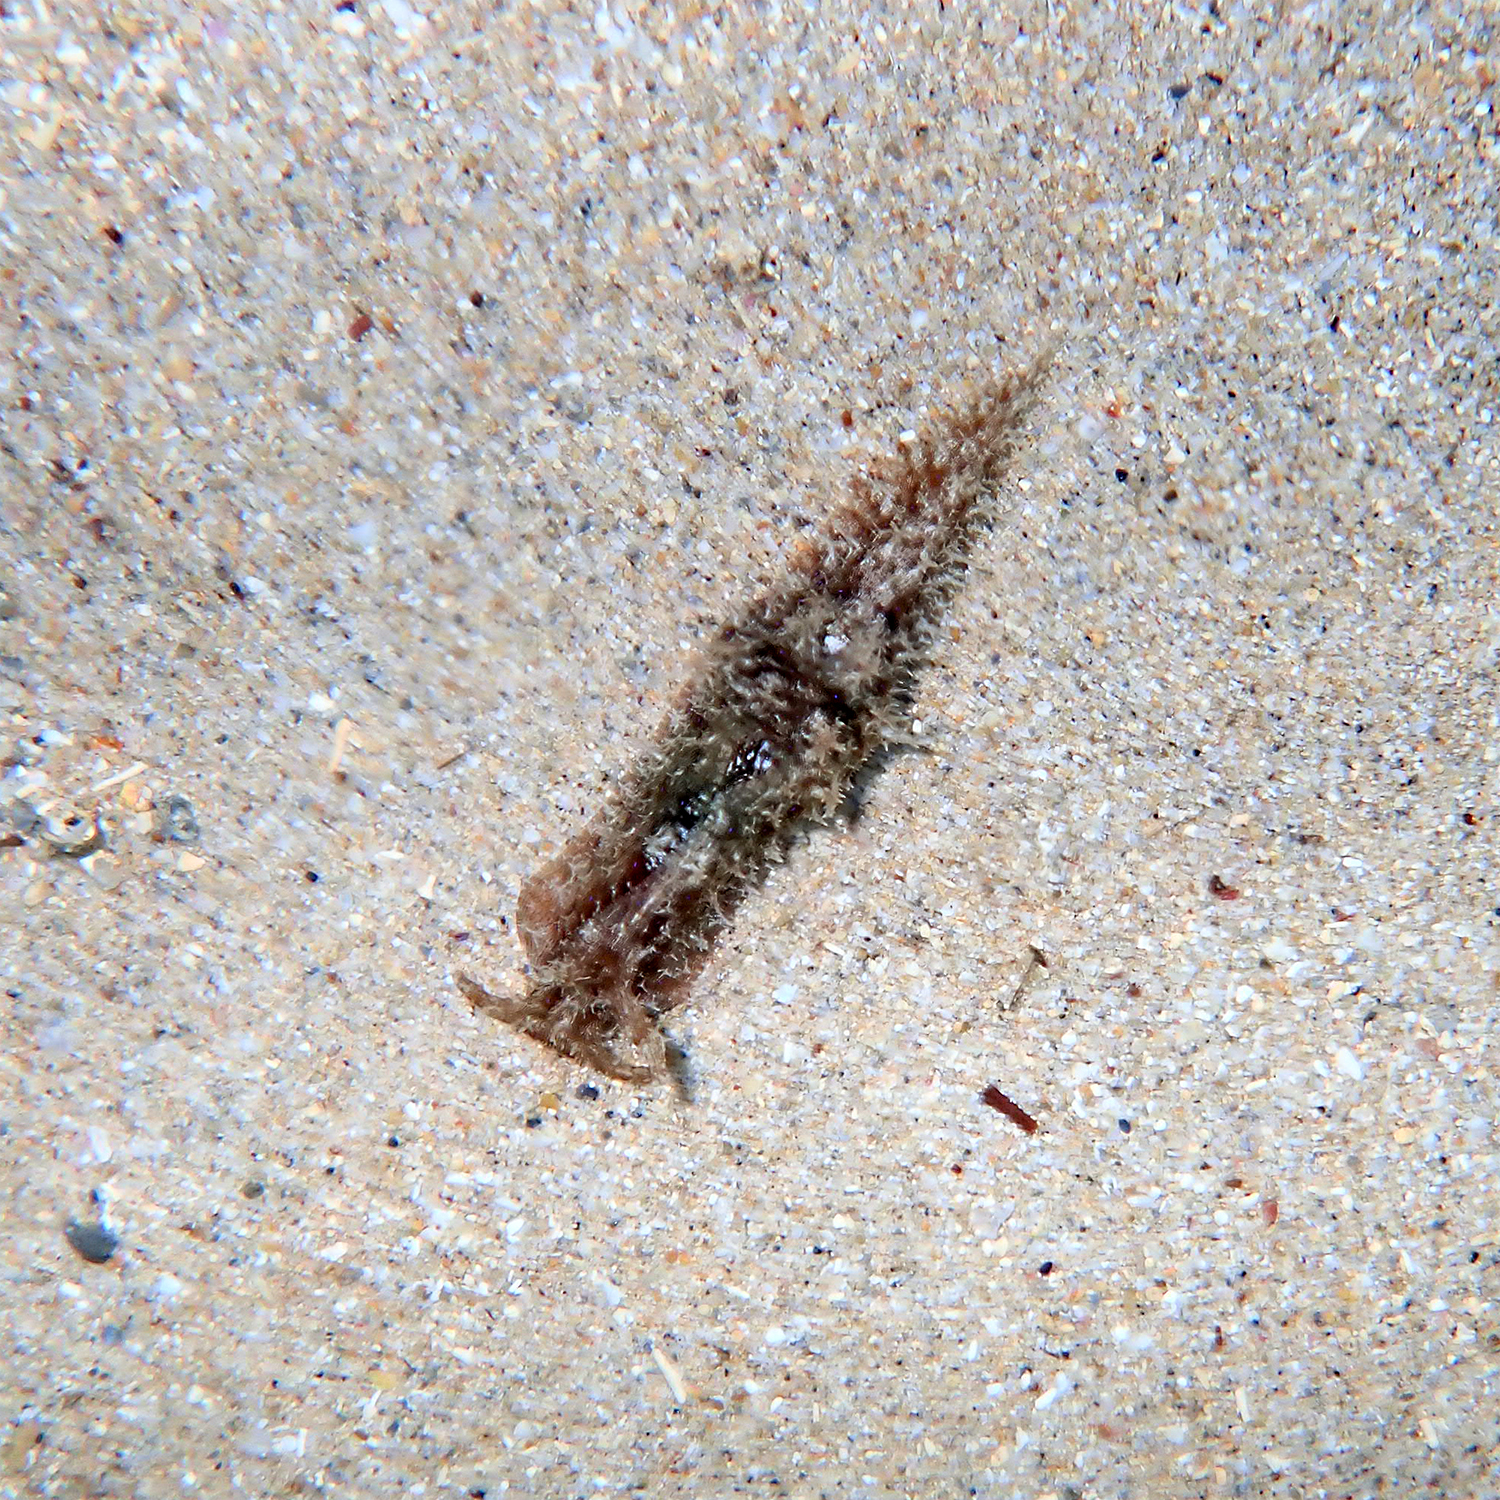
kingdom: Animalia
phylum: Mollusca
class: Gastropoda
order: Aplysiida
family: Aplysiidae
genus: Stylocheilus
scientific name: Stylocheilus striatus
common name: Striated seahare
